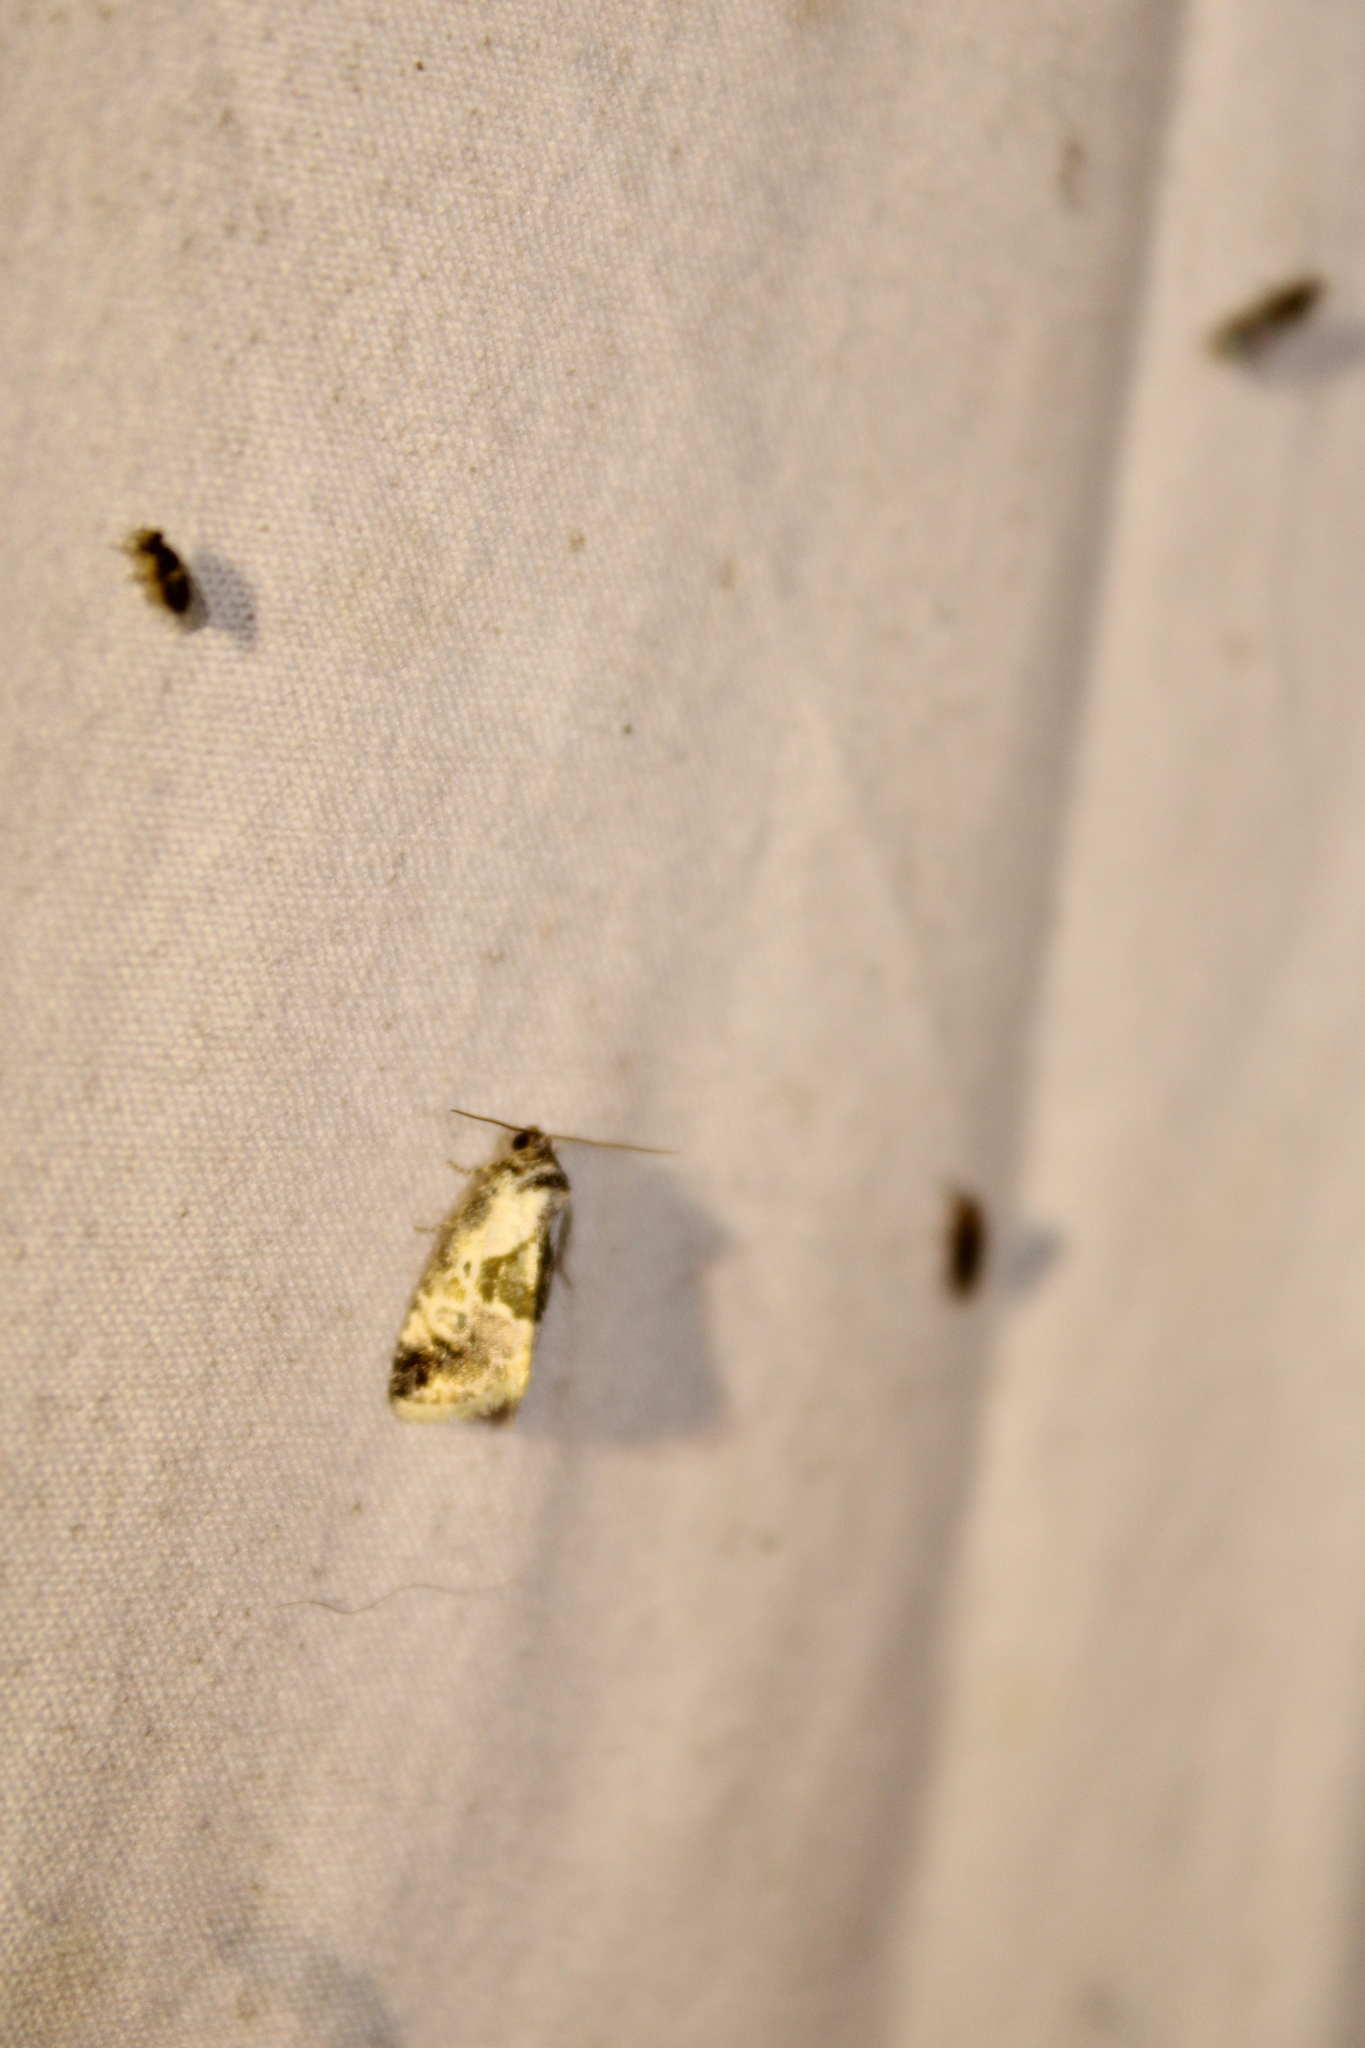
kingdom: Animalia
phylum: Arthropoda
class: Insecta
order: Lepidoptera
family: Noctuidae
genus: Maliattha
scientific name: Maliattha synochitis
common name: Black-dotted glyph
